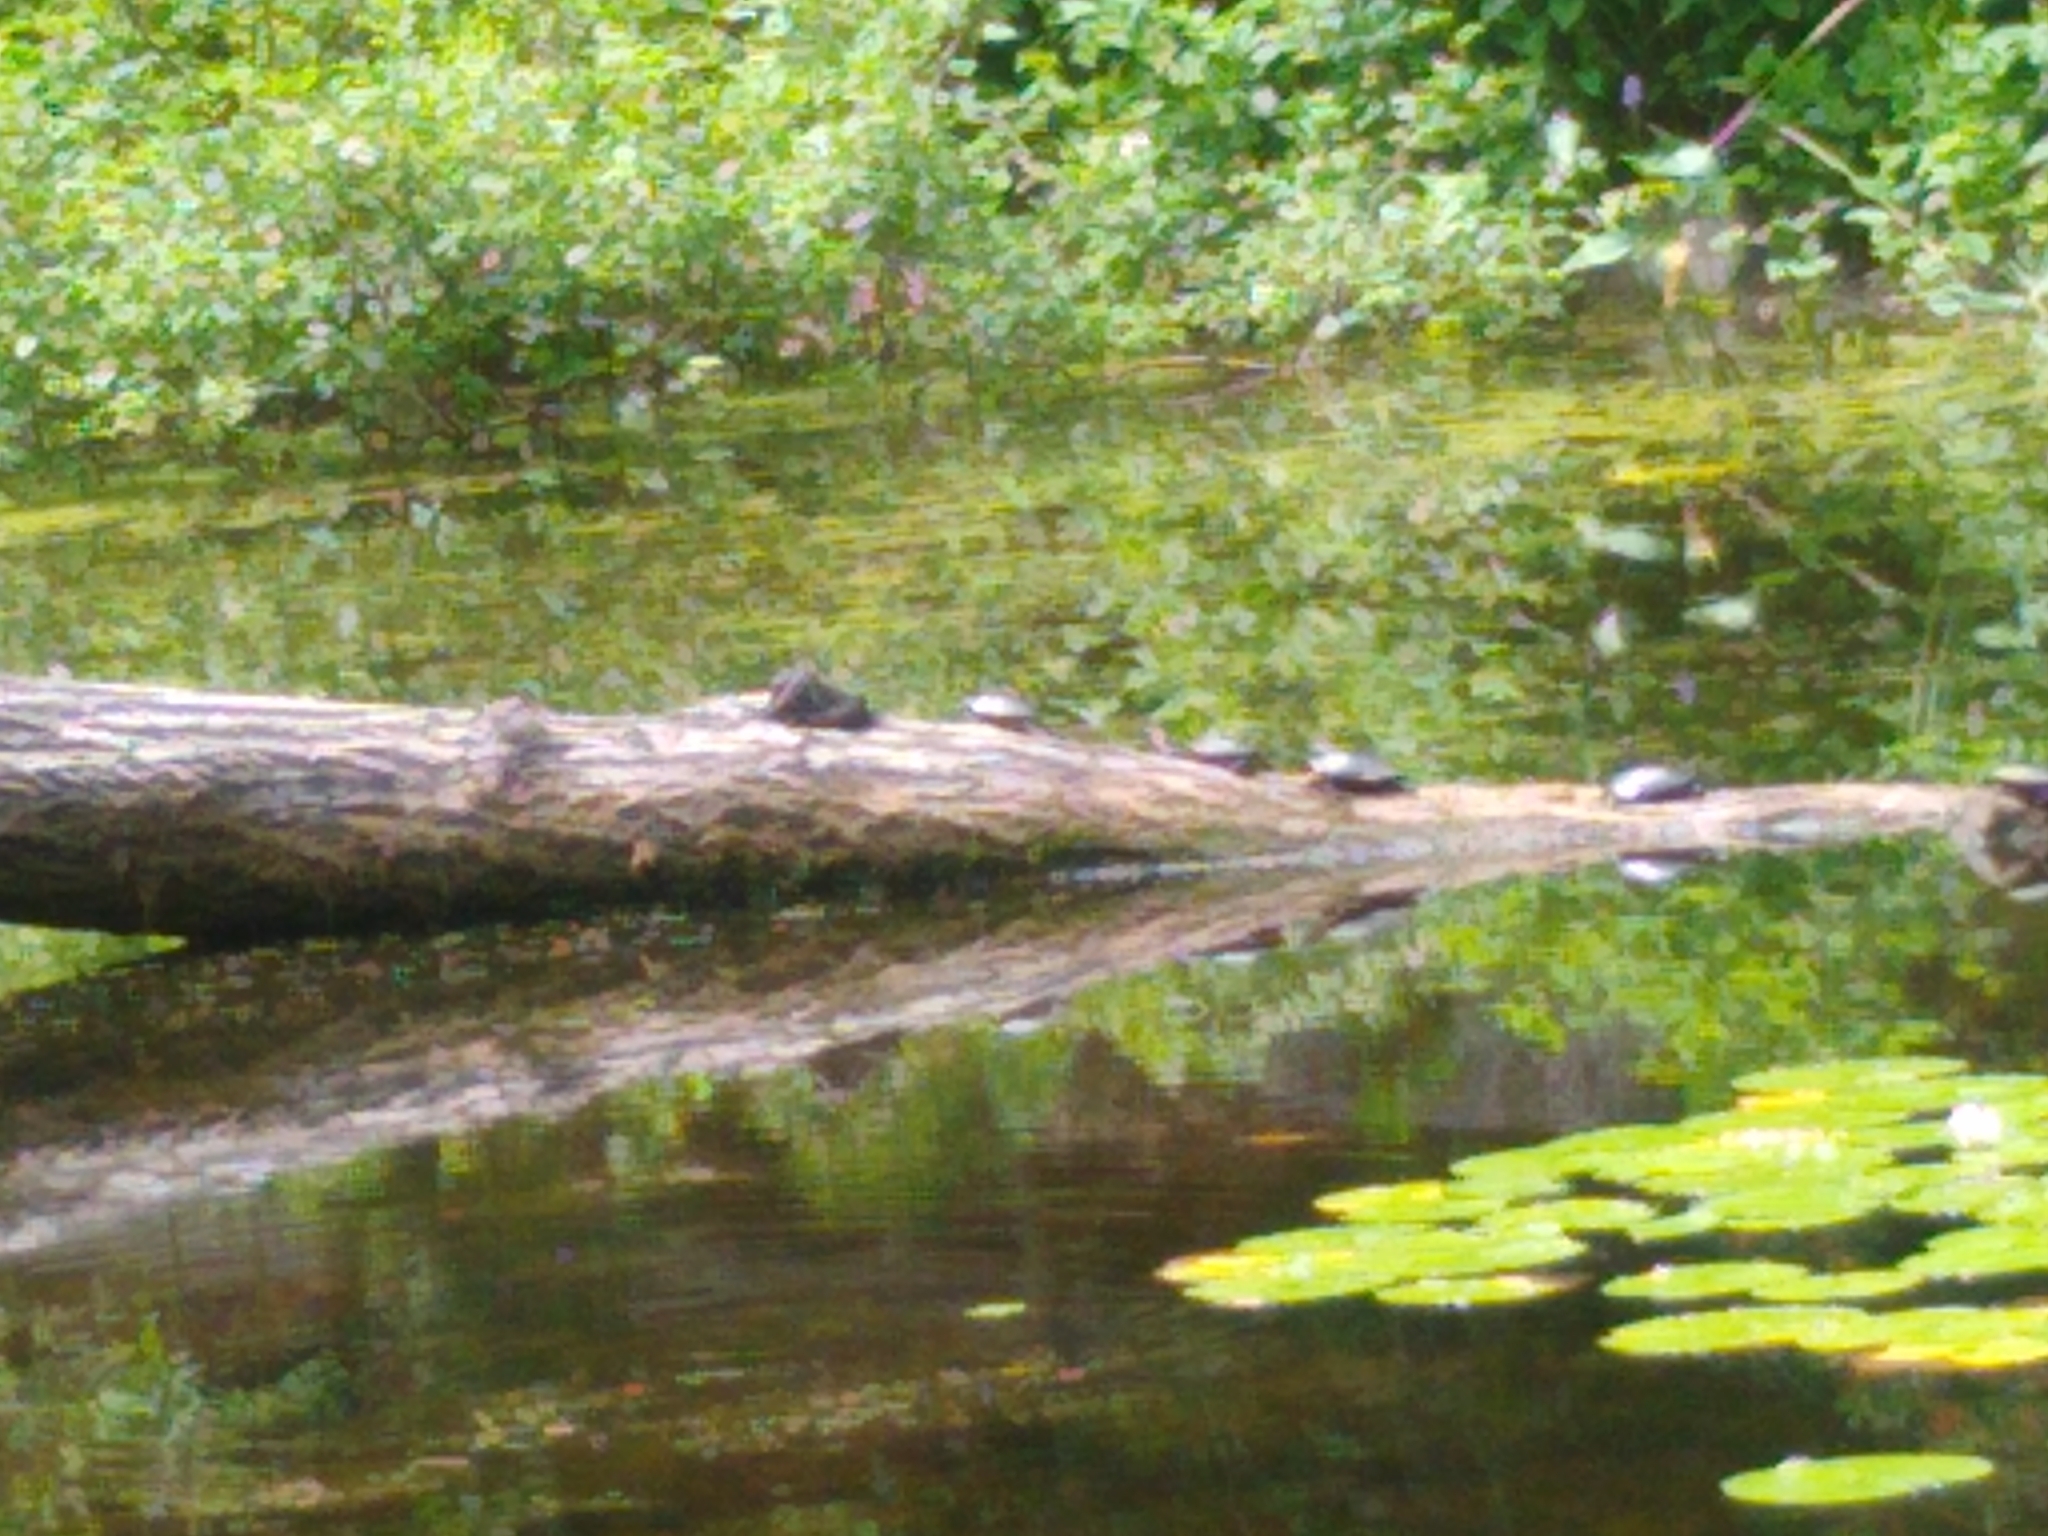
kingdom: Animalia
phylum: Chordata
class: Testudines
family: Emydidae
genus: Chrysemys
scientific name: Chrysemys picta
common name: Painted turtle
